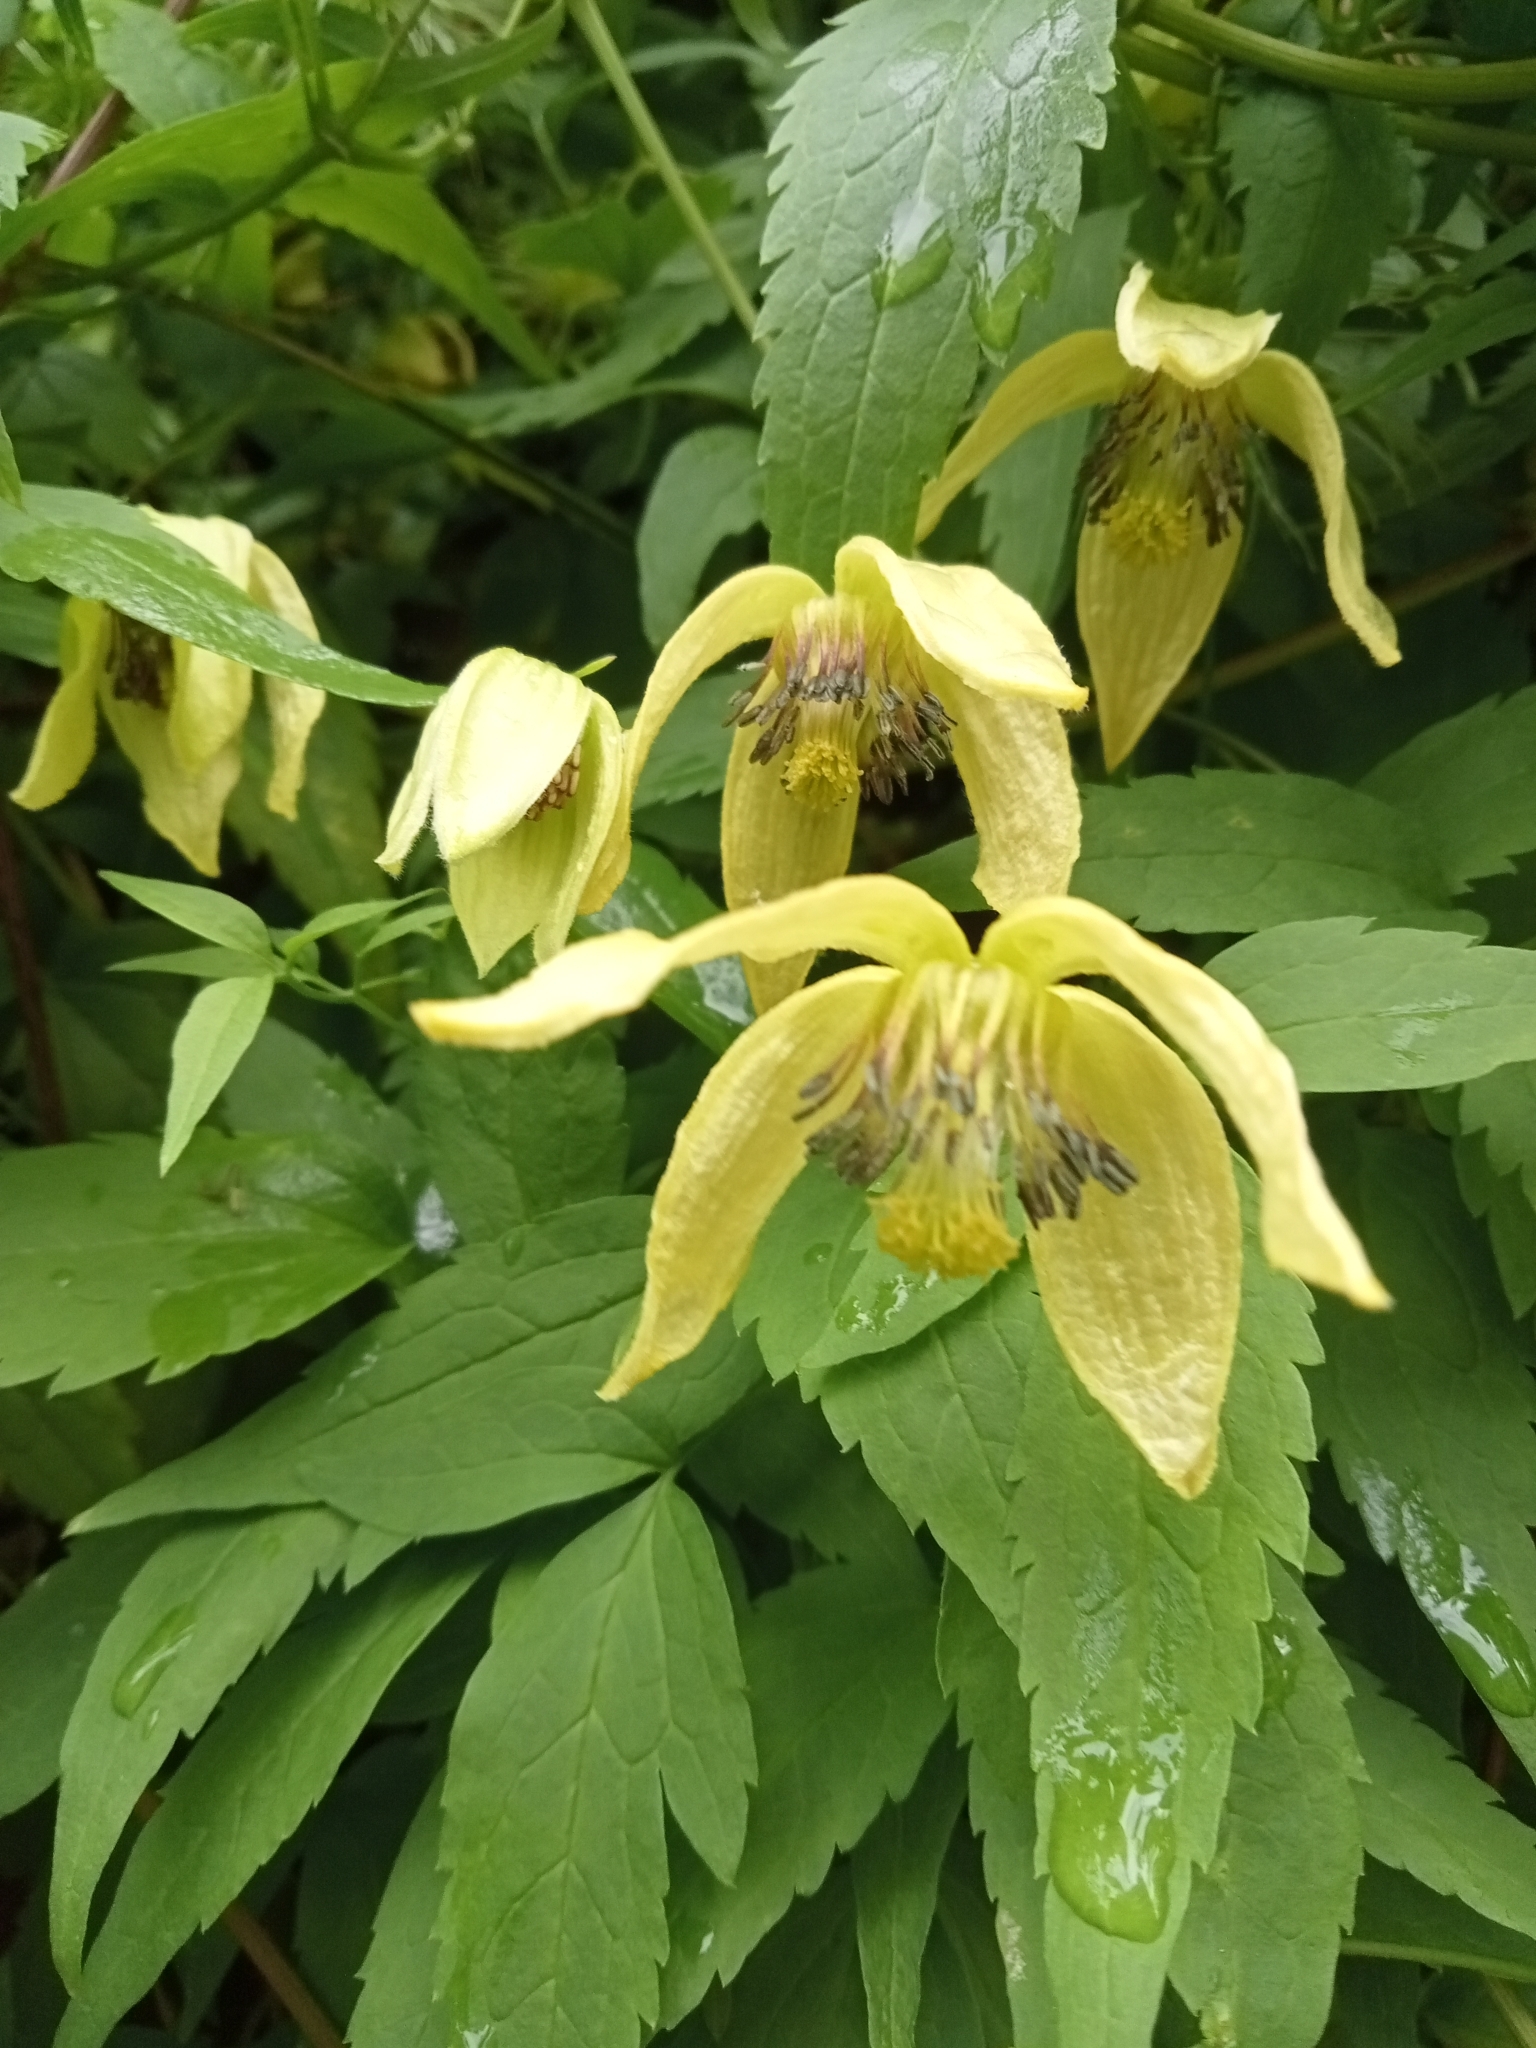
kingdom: Plantae
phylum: Tracheophyta
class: Magnoliopsida
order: Ranunculales
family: Ranunculaceae
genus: Clematis
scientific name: Clematis tangutica
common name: Orange-peel clematis
